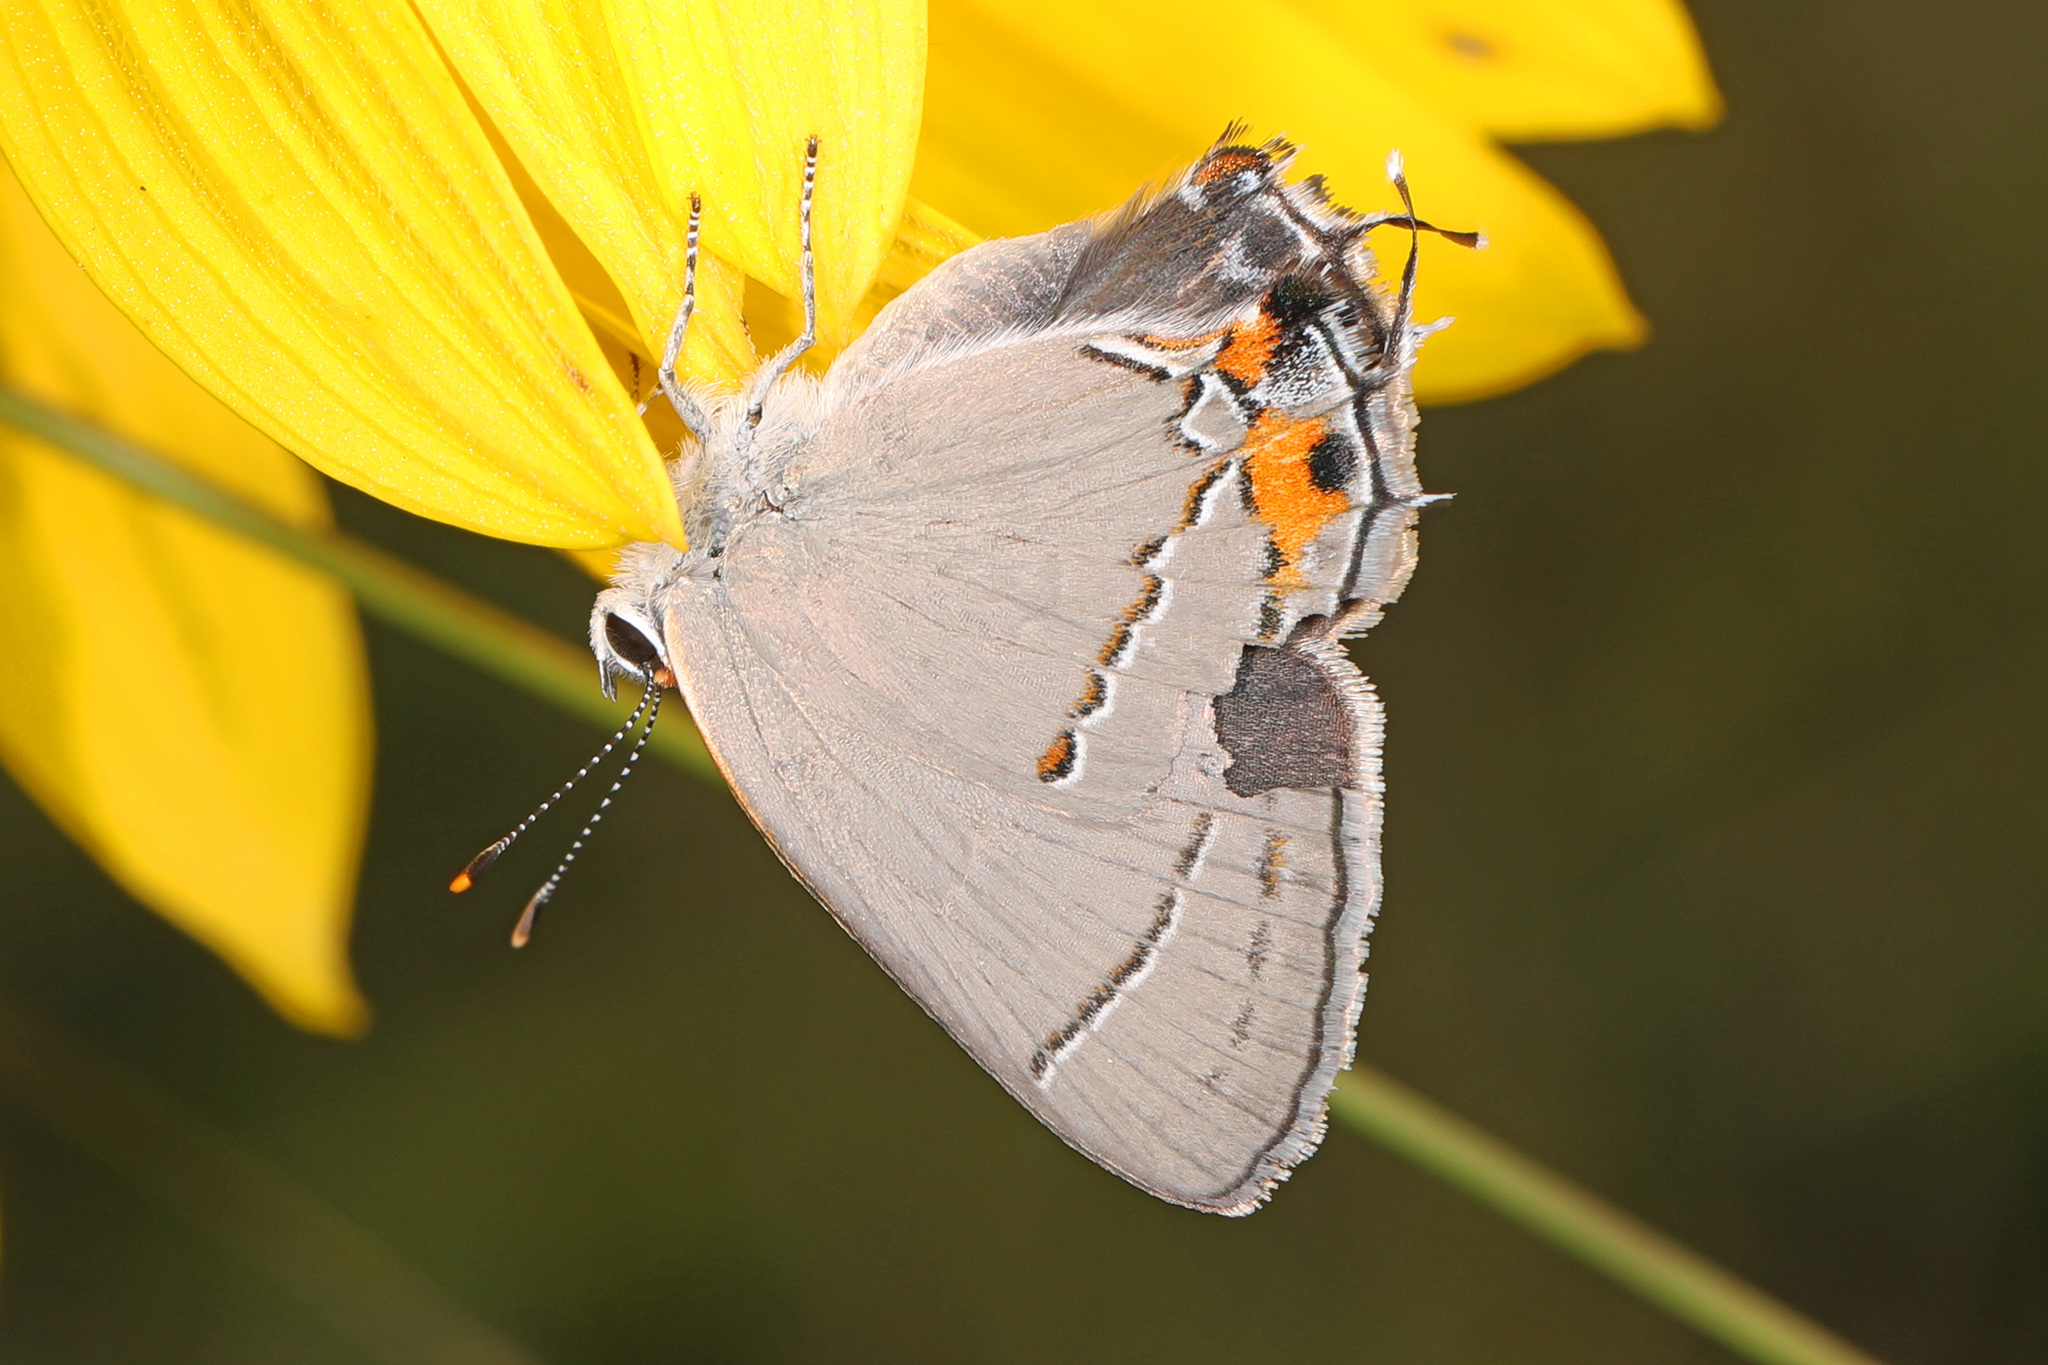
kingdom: Animalia
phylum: Arthropoda
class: Insecta
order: Lepidoptera
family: Lycaenidae
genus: Strymon
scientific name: Strymon melinus
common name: Gray hairstreak
